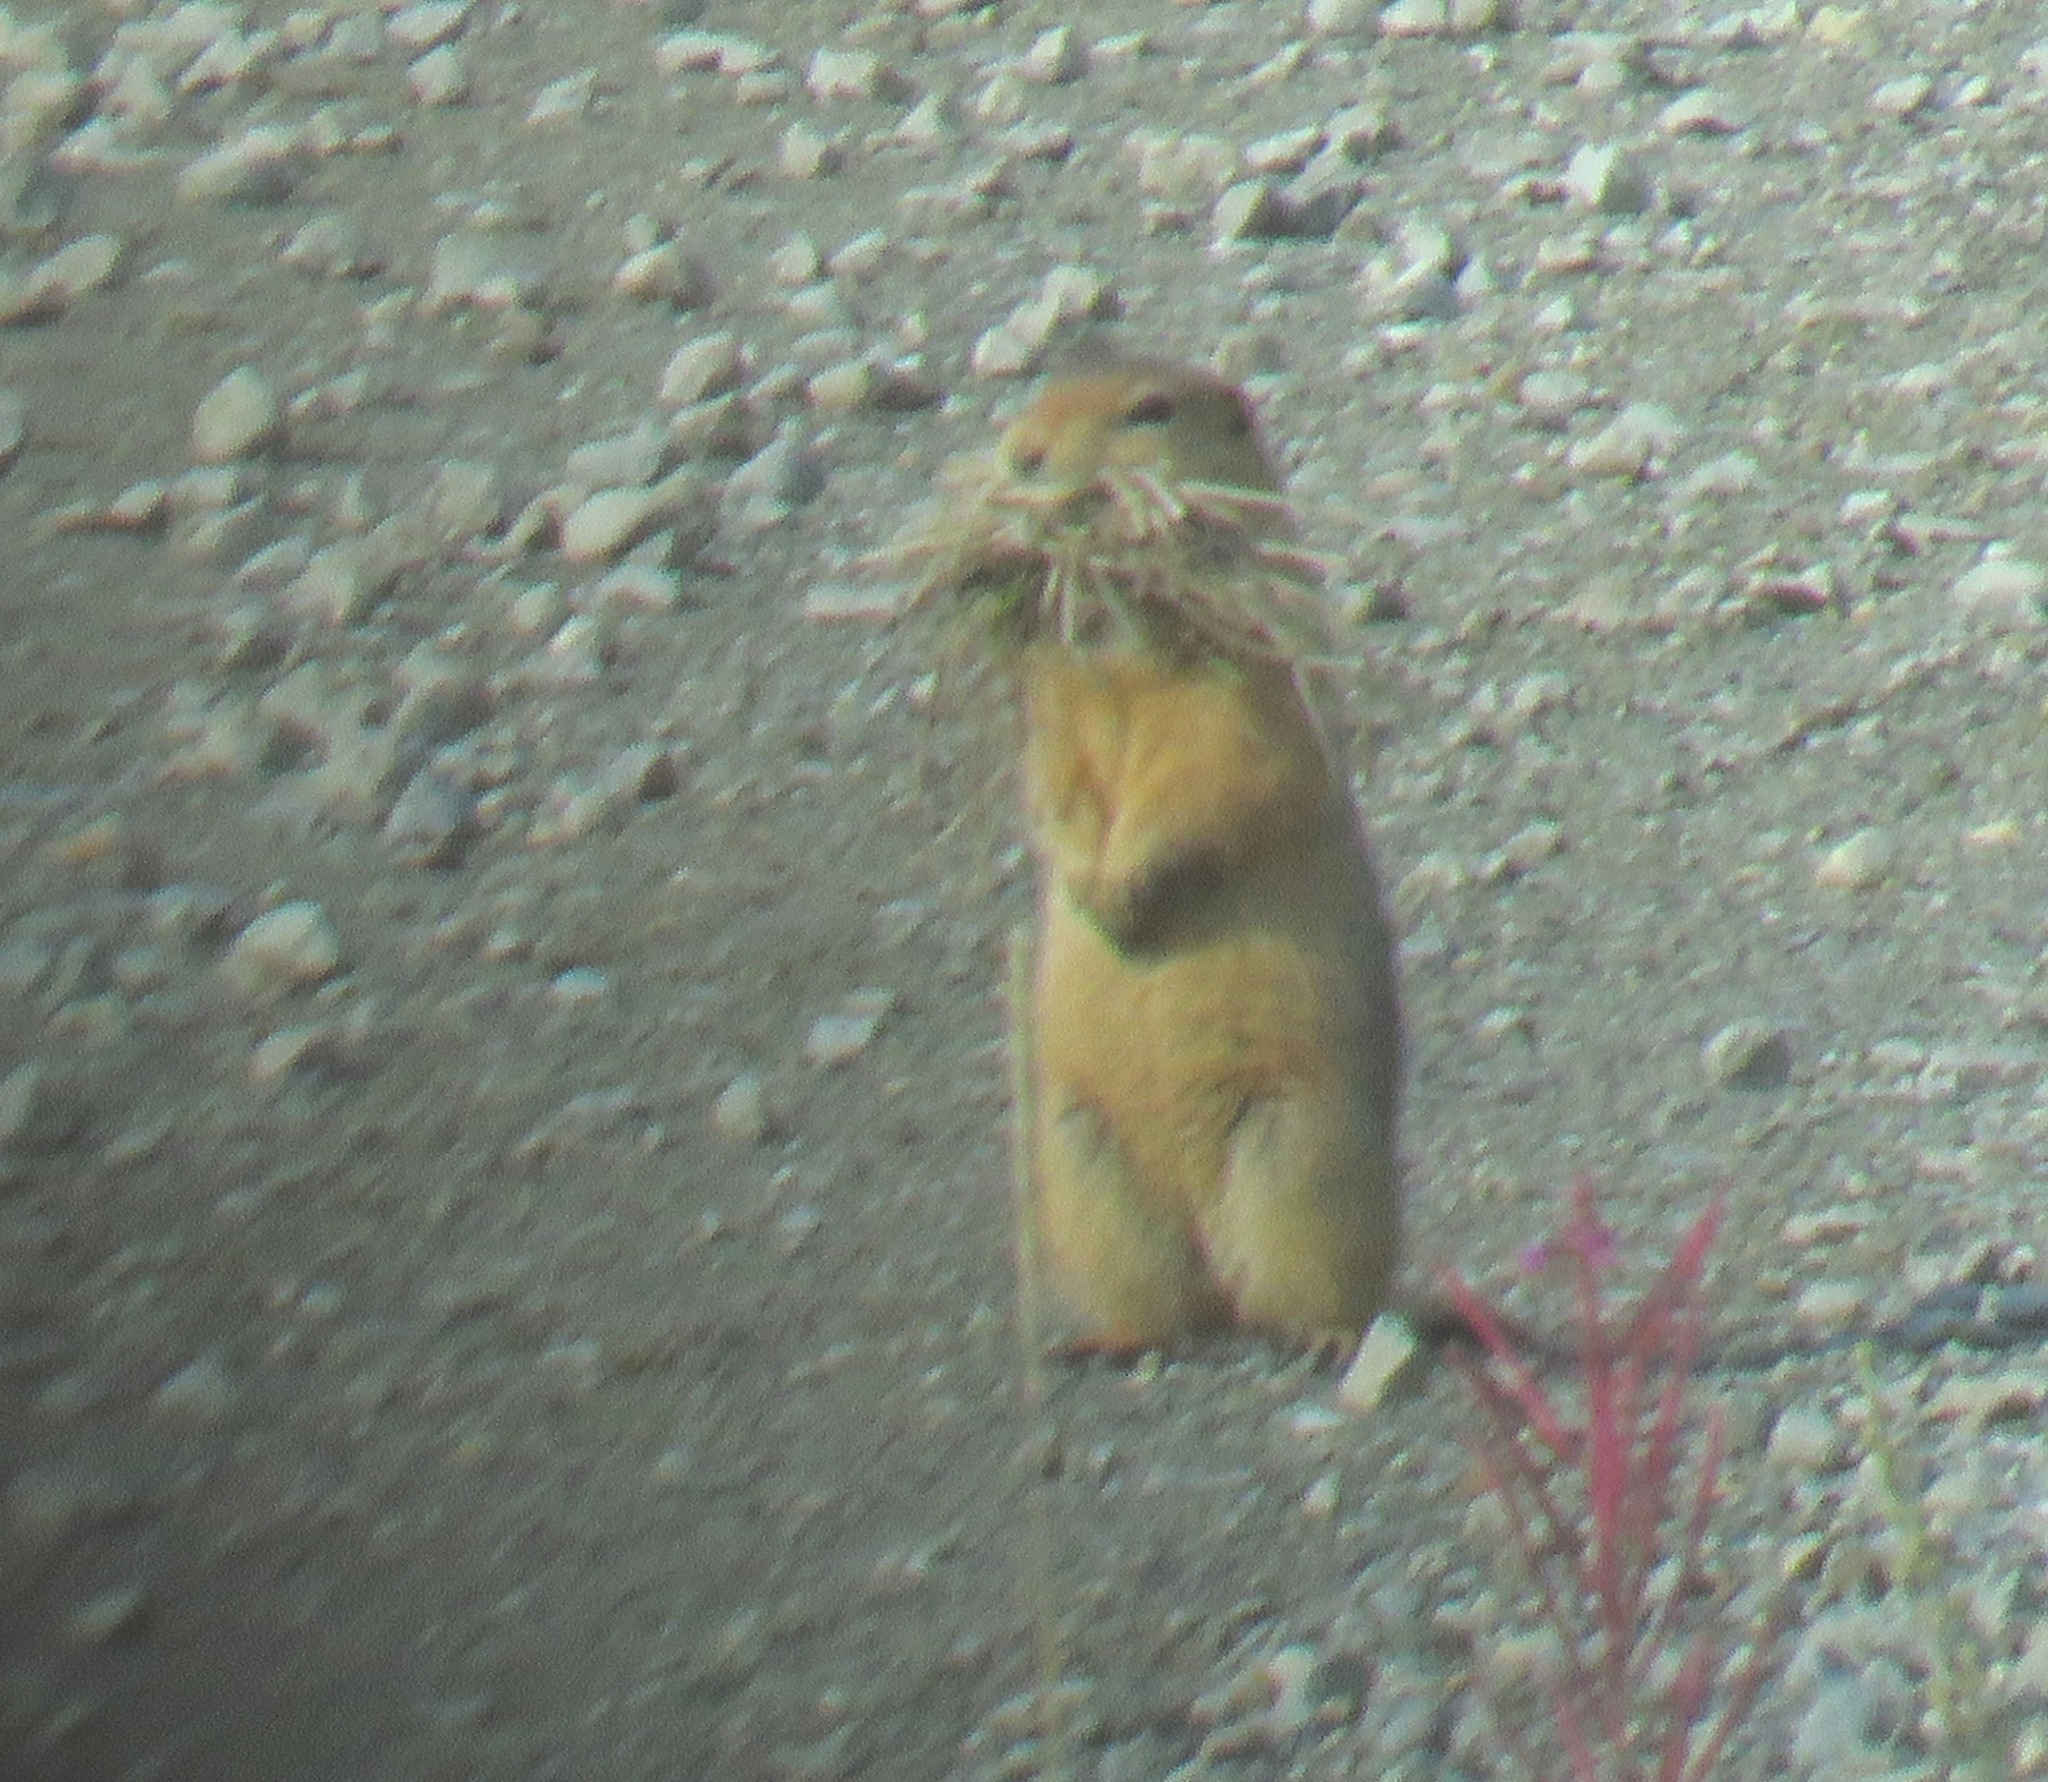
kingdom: Animalia
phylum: Chordata
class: Mammalia
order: Rodentia
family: Sciuridae
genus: Urocitellus
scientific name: Urocitellus parryii
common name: Arctic ground squirrel
